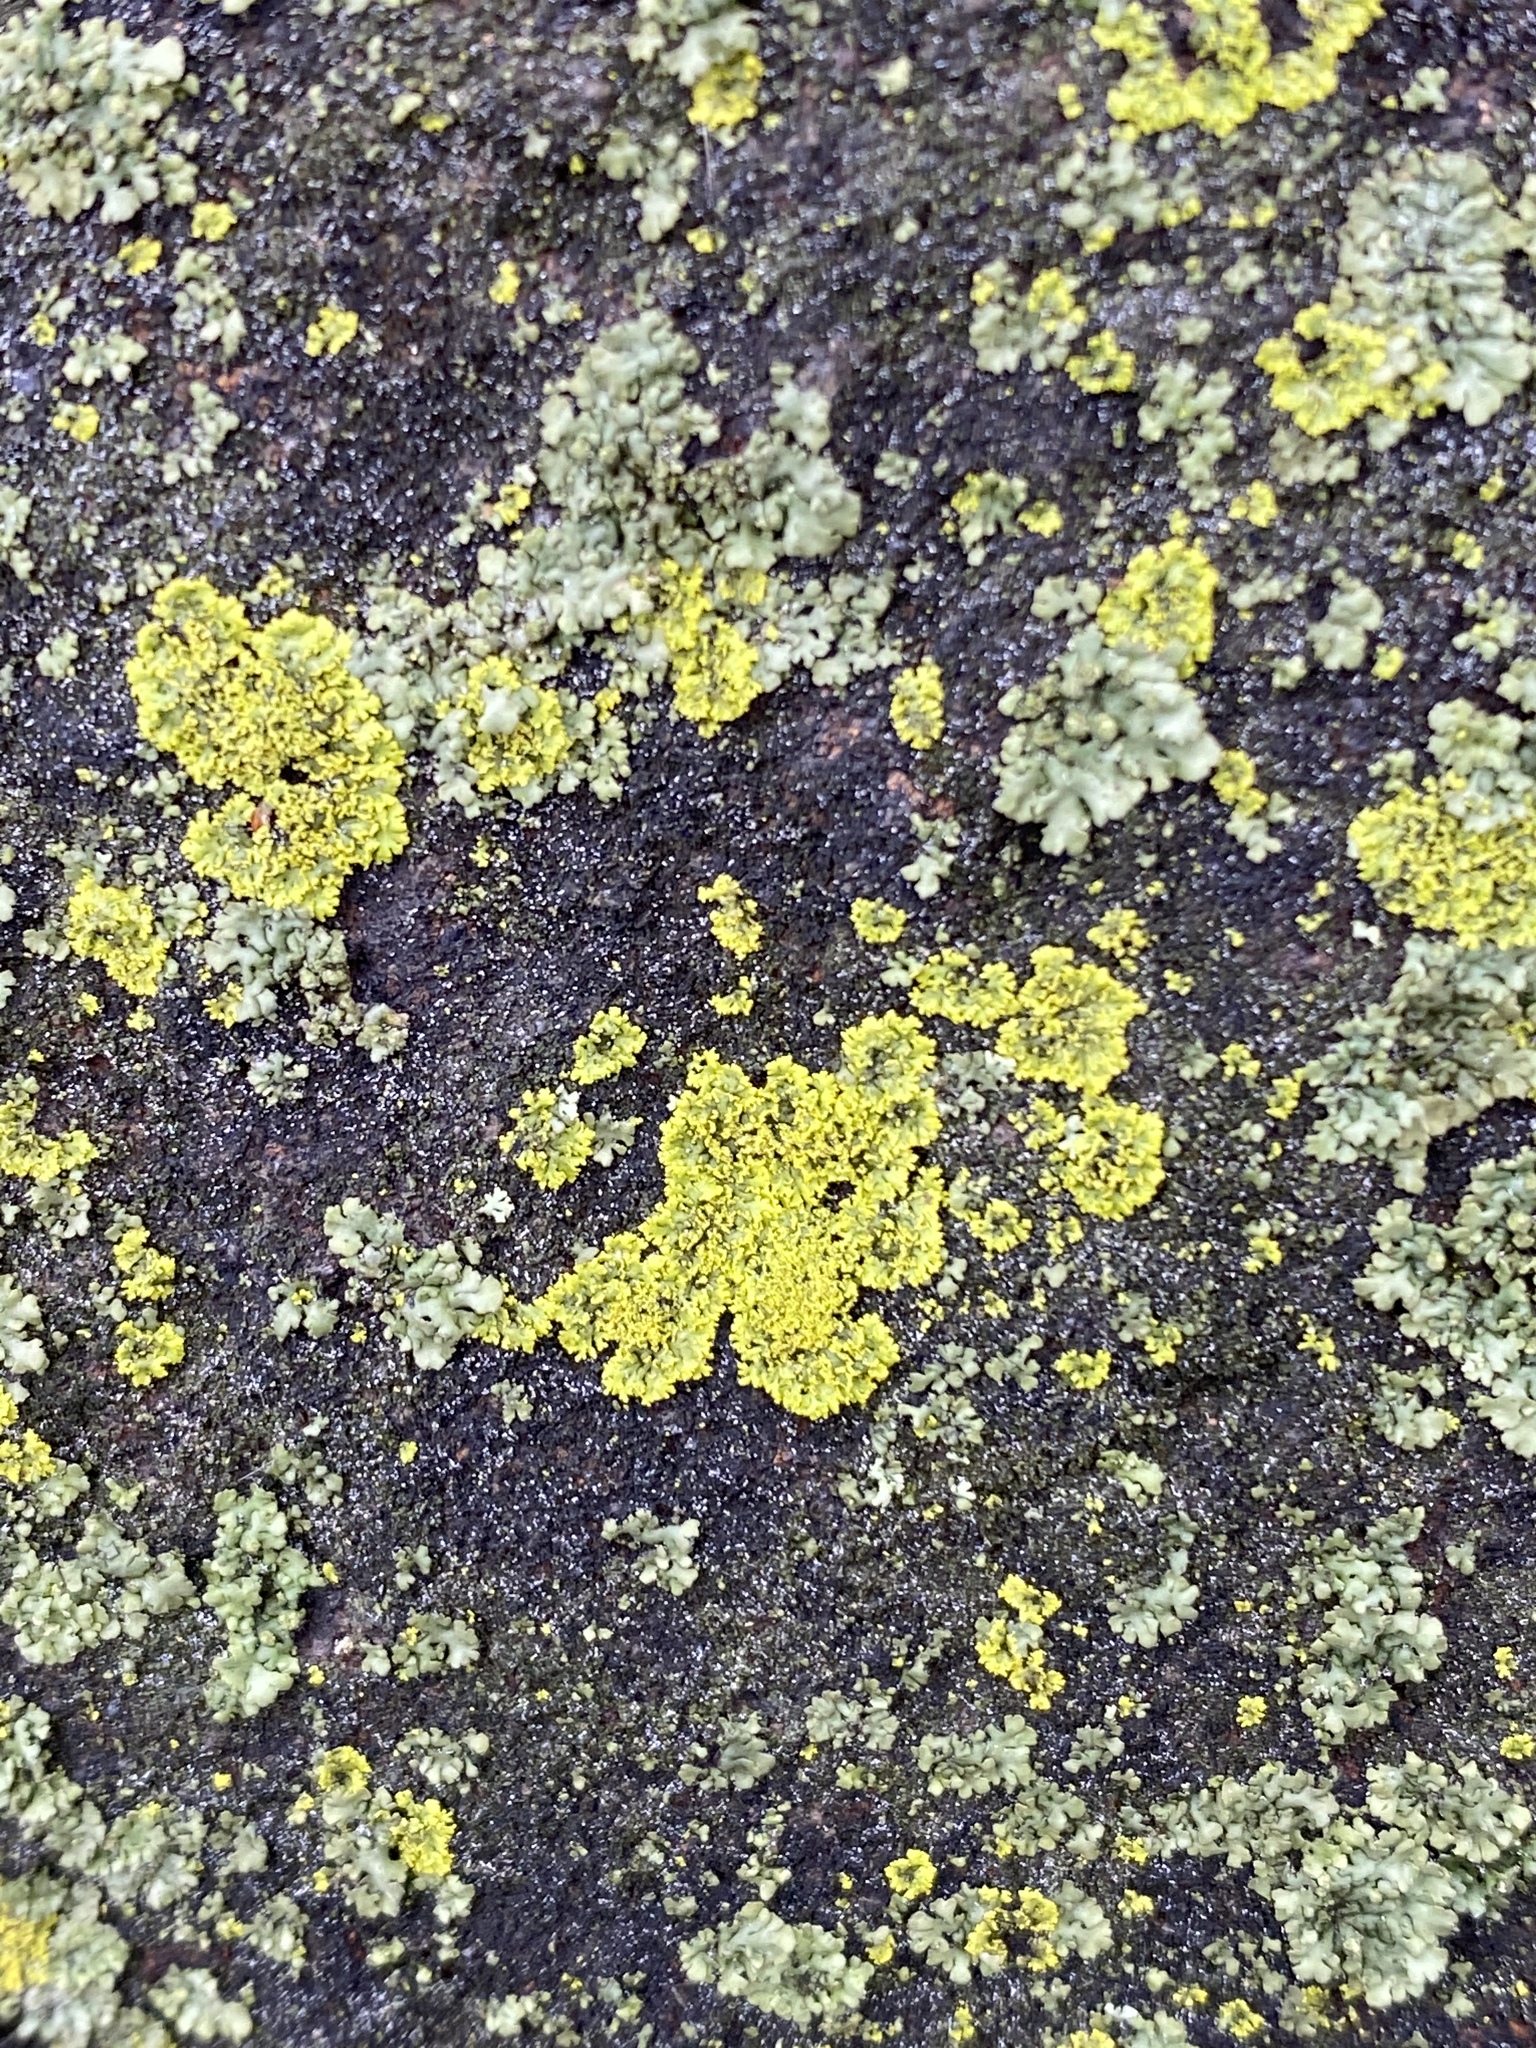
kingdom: Fungi
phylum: Ascomycota
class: Candelariomycetes
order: Candelariales
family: Candelariaceae
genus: Candelaria
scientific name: Candelaria concolor
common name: Candleflame lichen
